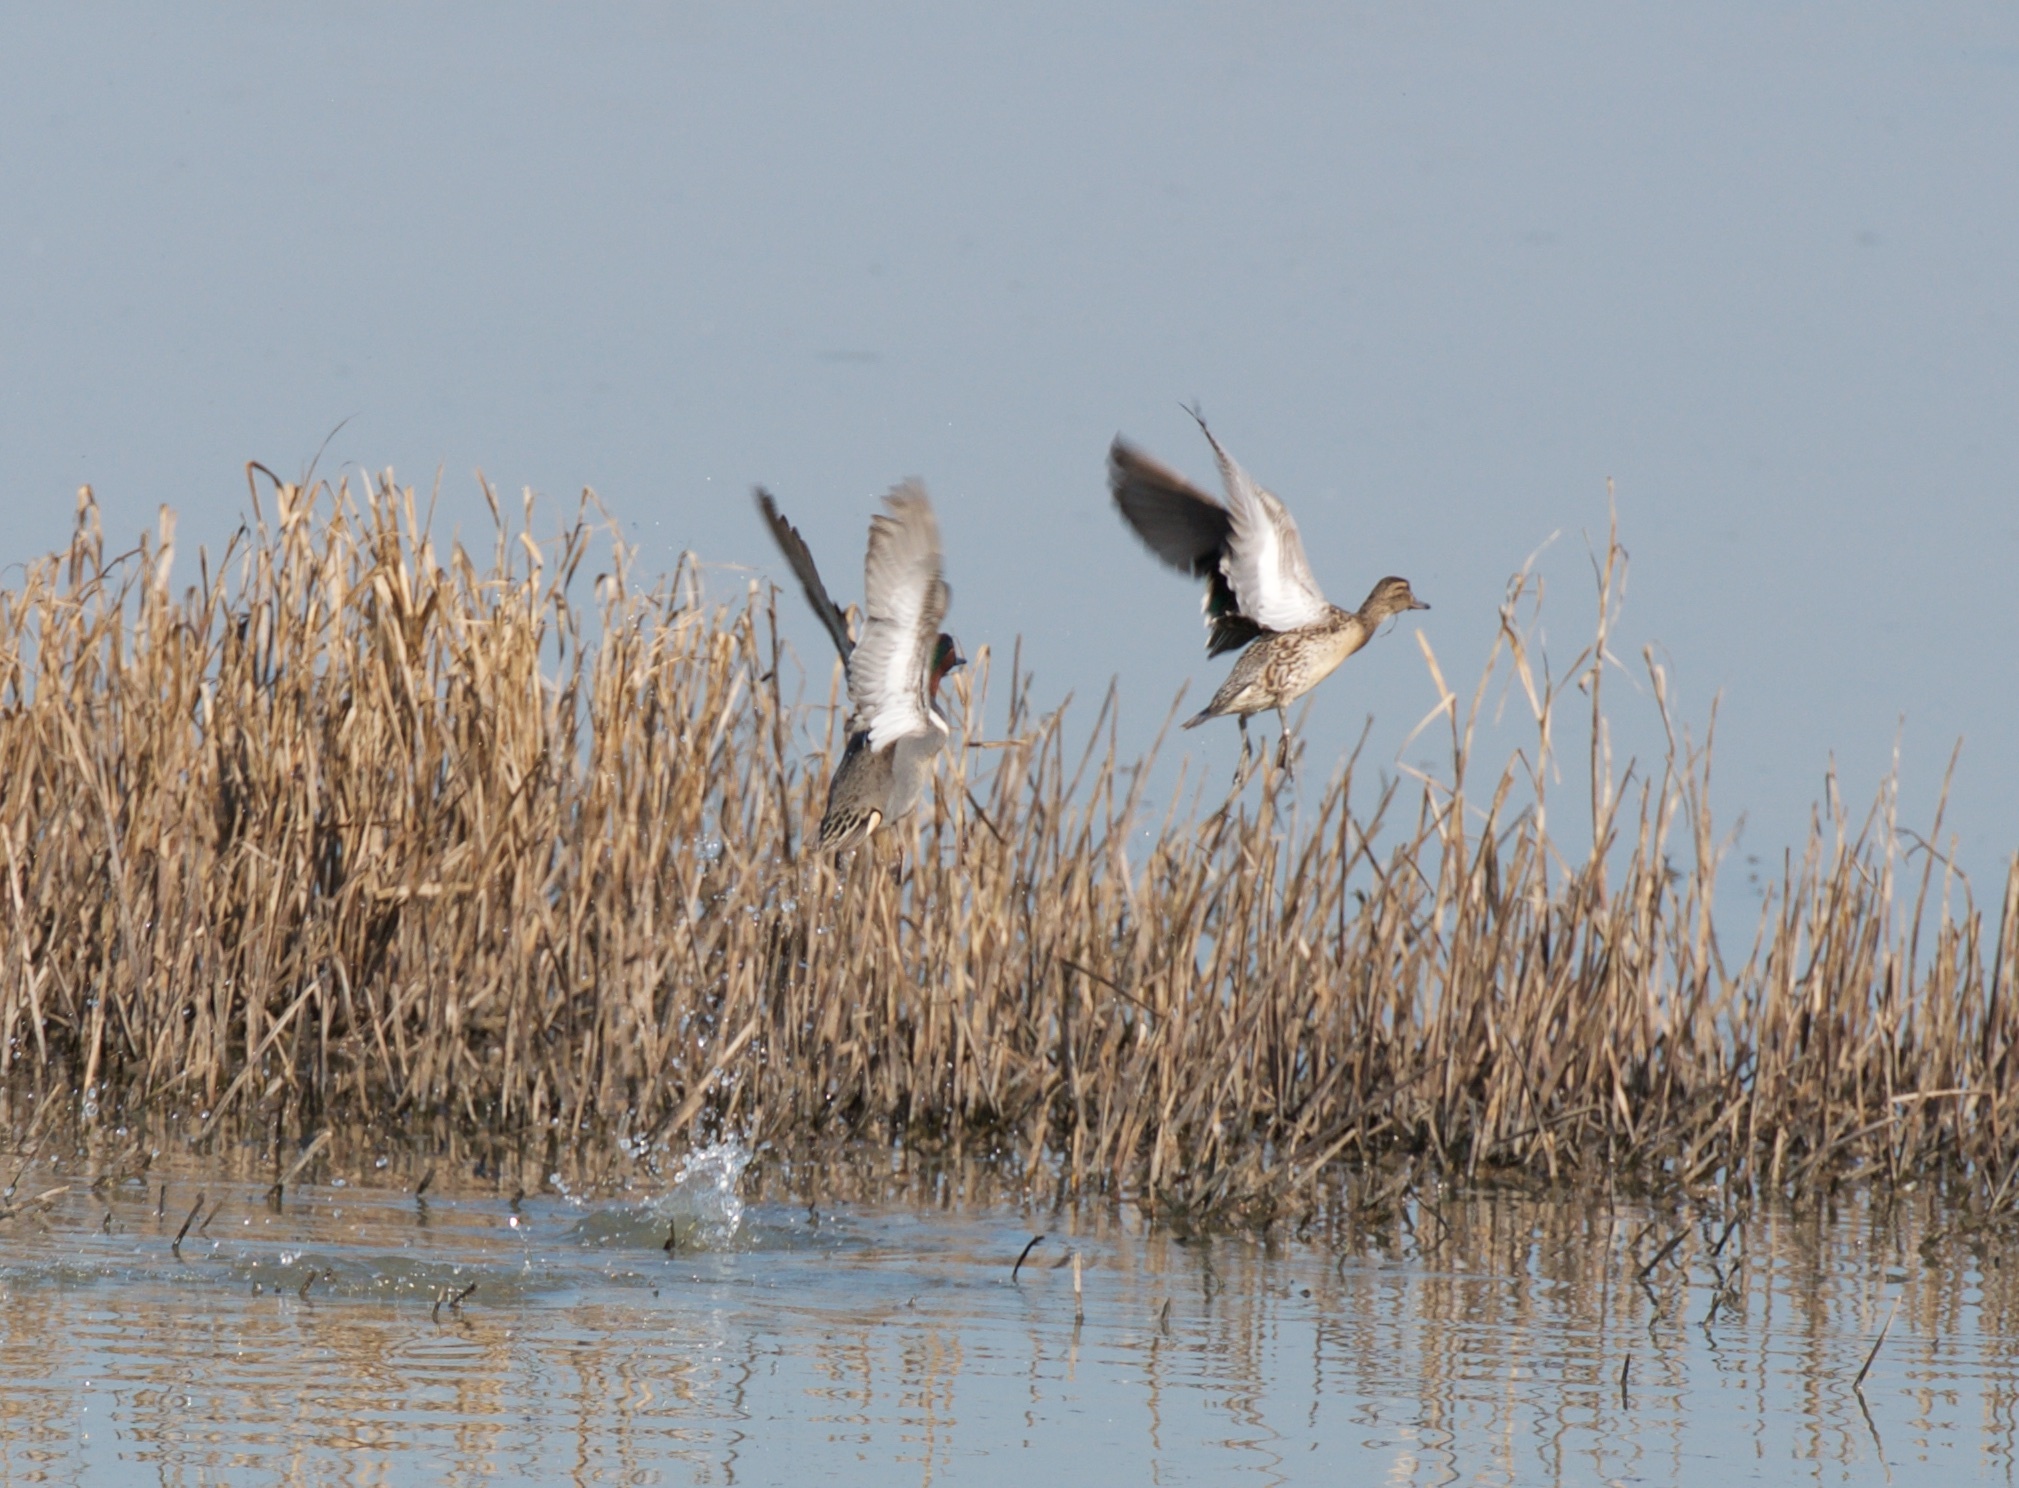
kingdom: Animalia
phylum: Chordata
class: Aves
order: Anseriformes
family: Anatidae
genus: Anas
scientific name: Anas crecca
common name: Eurasian teal
